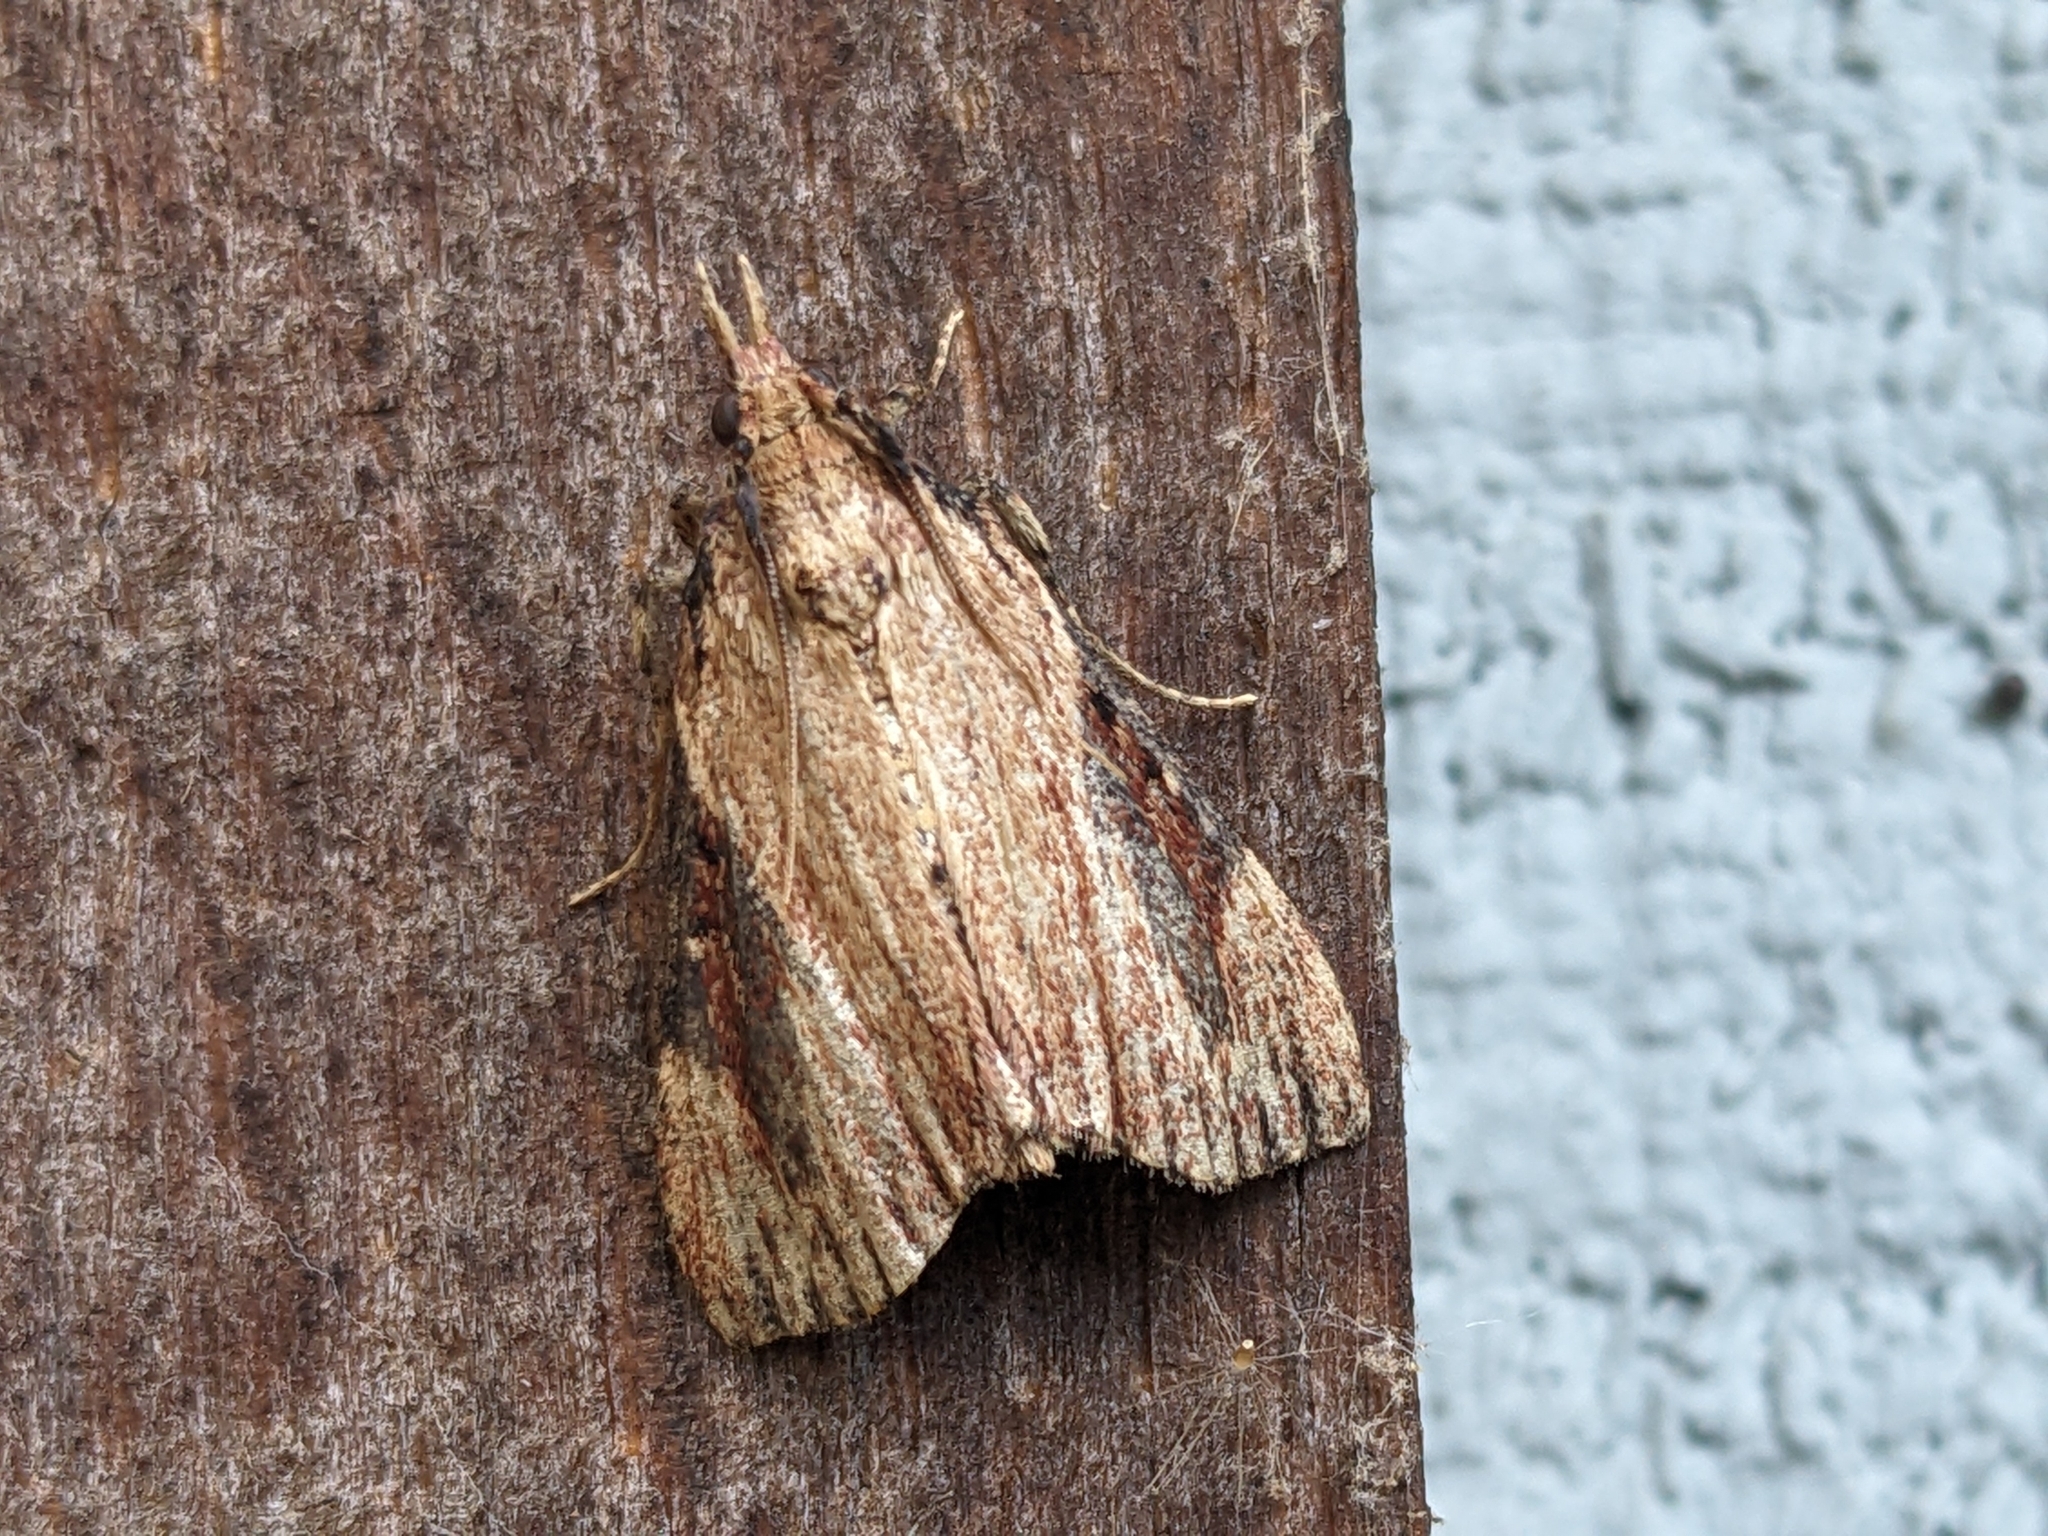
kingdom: Animalia
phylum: Arthropoda
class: Insecta
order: Lepidoptera
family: Pyralidae
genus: Omphalocera
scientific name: Omphalocera cariosa
